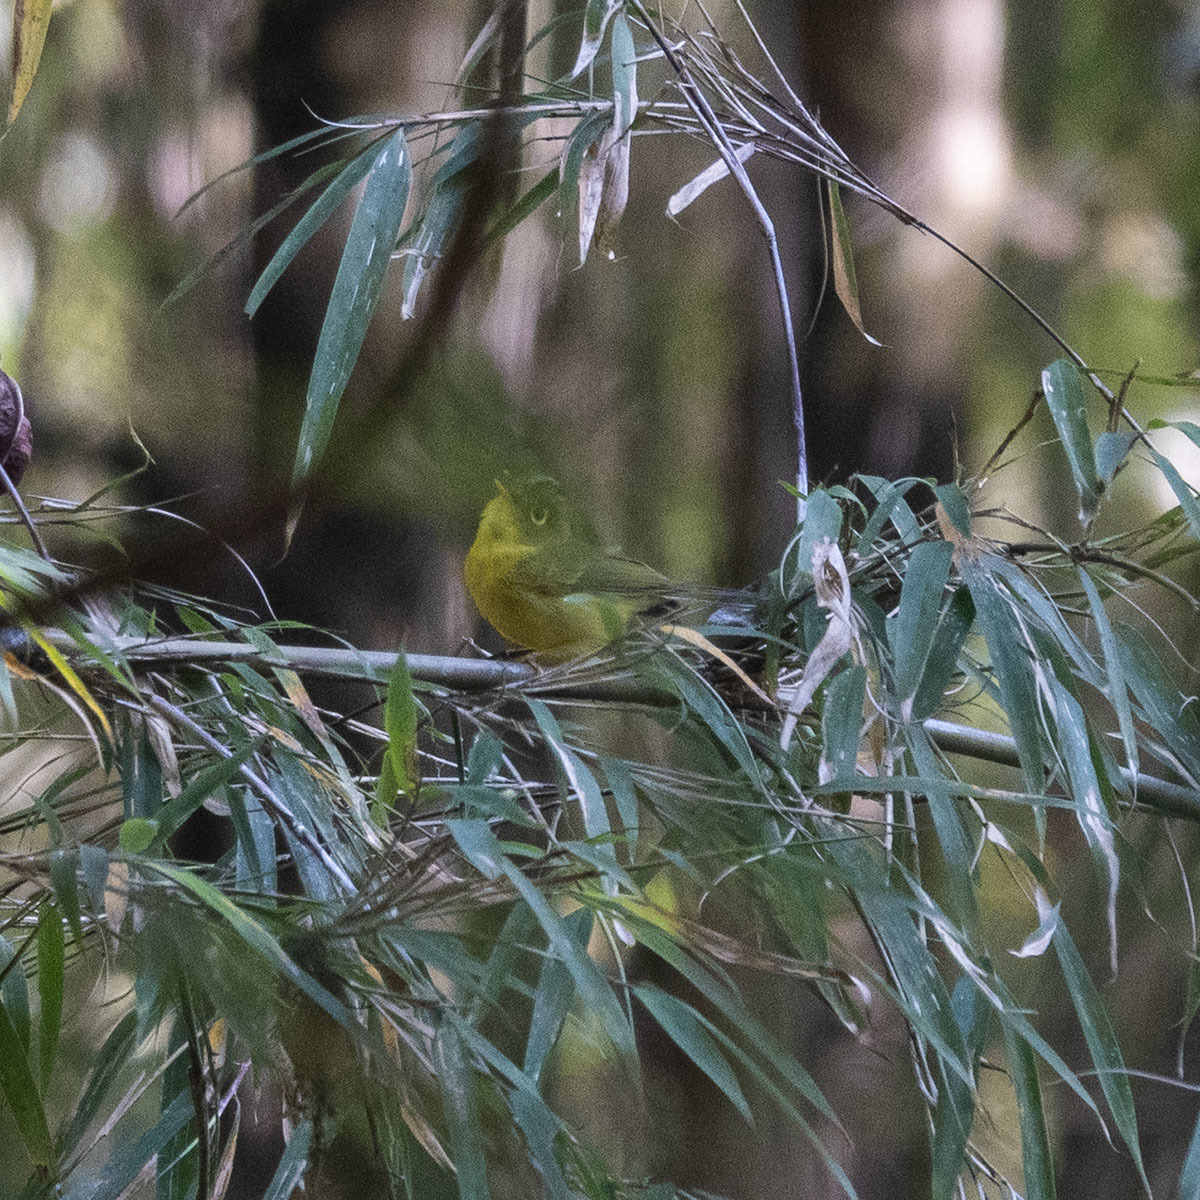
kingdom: Animalia
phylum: Chordata
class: Aves
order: Passeriformes
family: Phylloscopidae
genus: Seicercus
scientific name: Seicercus whistleri
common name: Whistler's warbler
